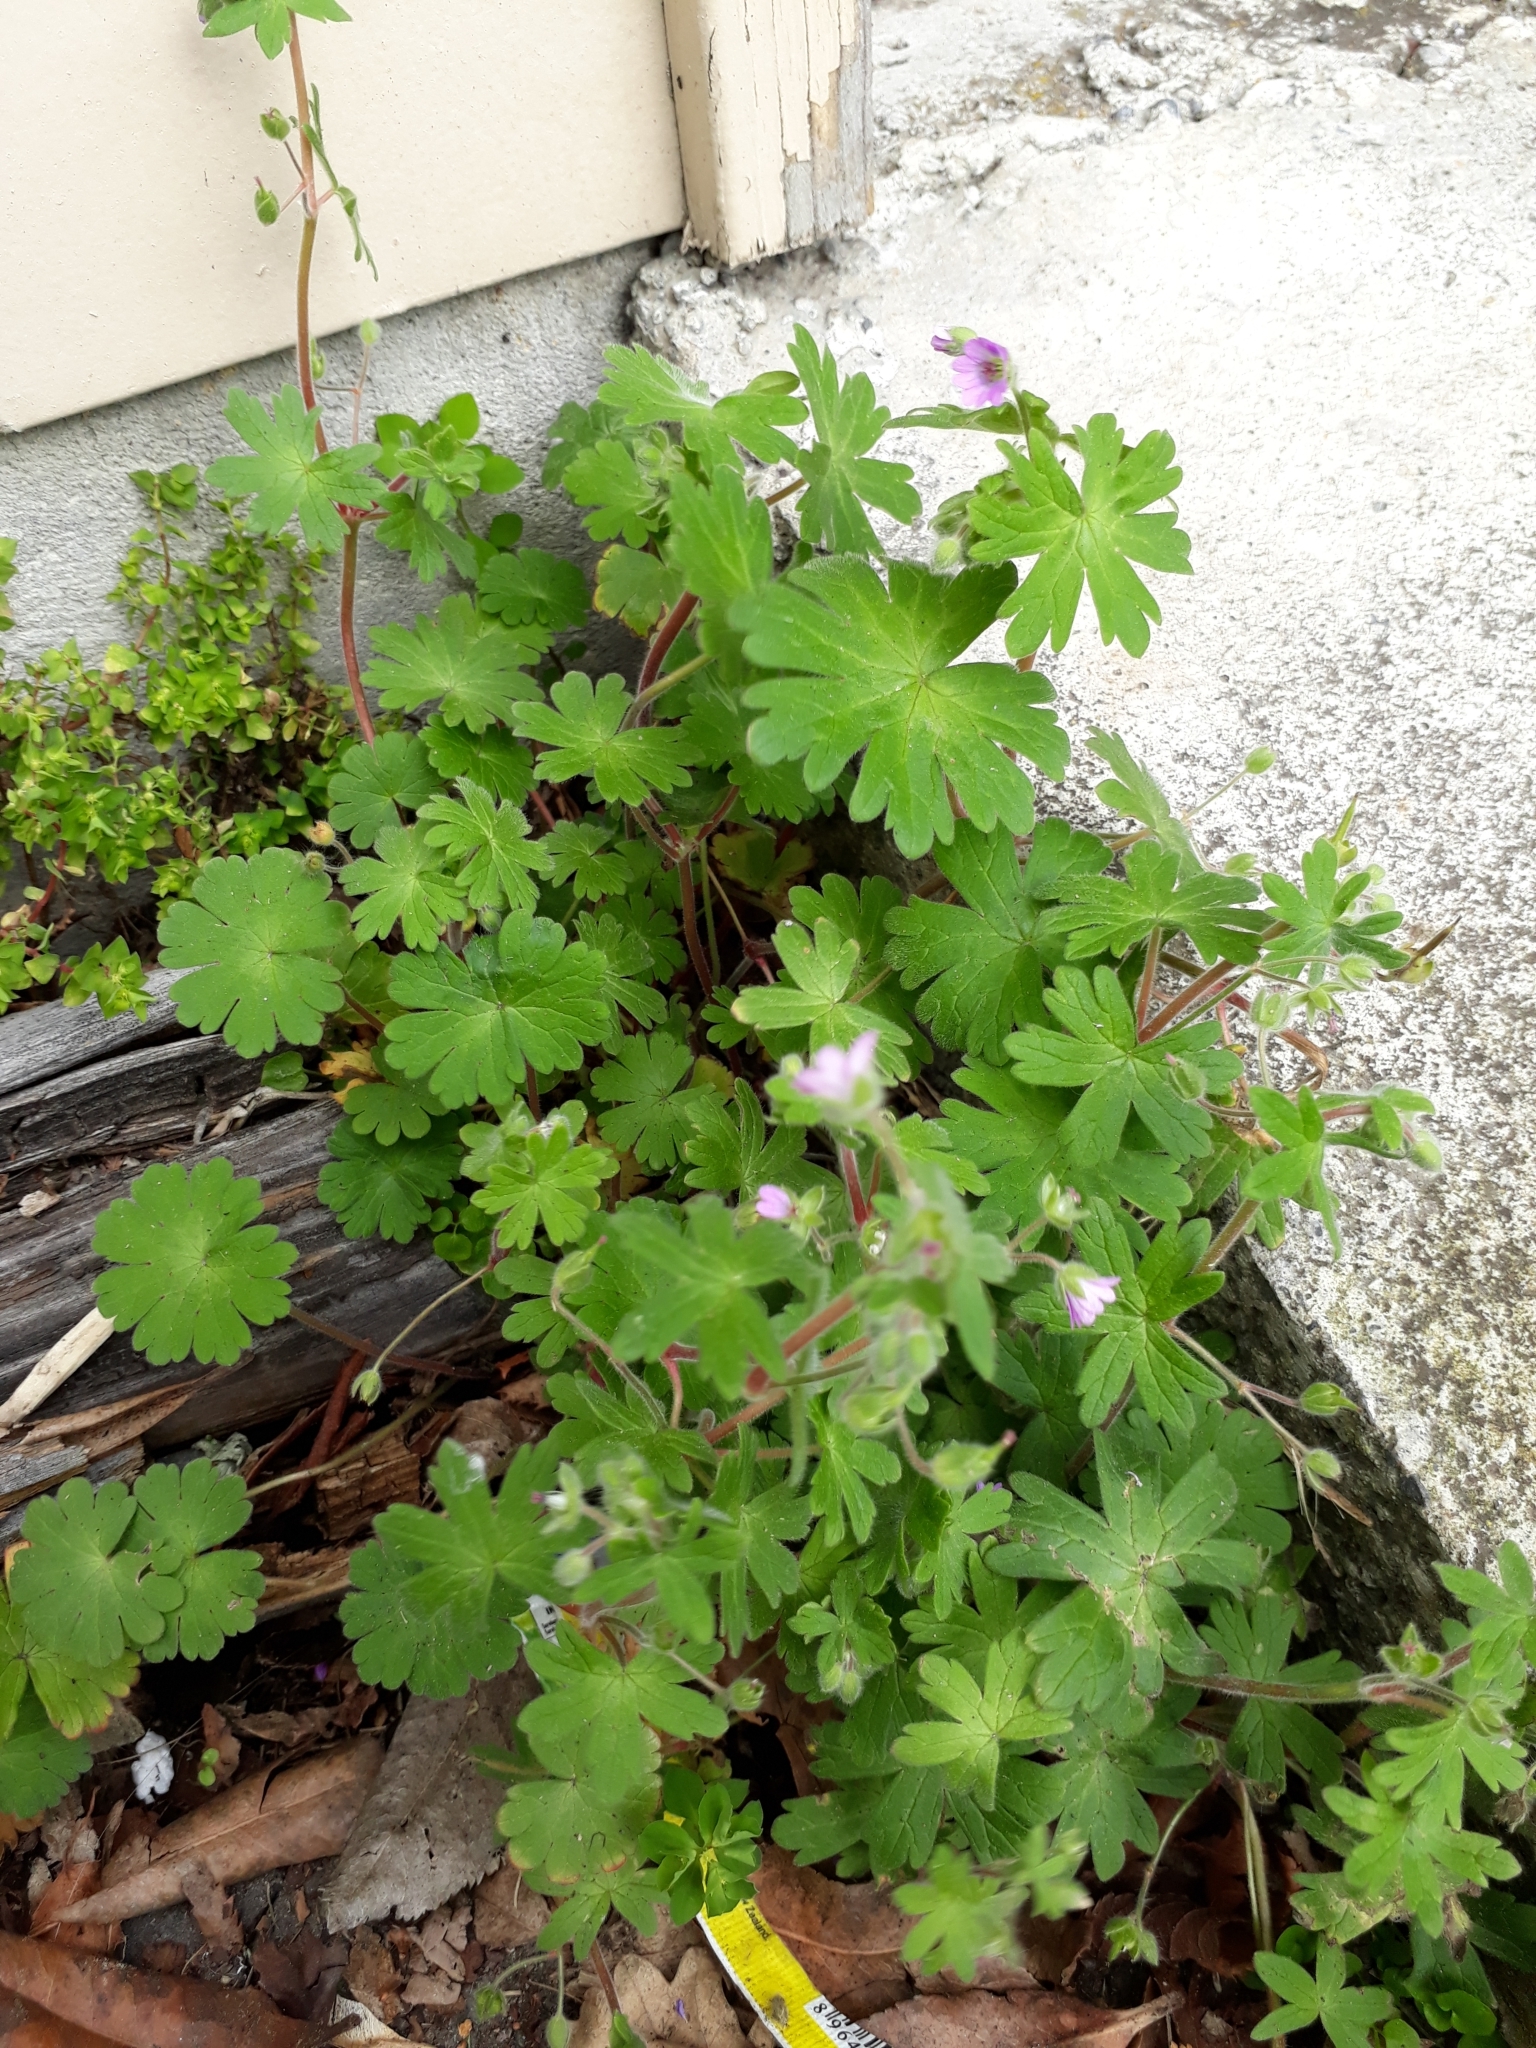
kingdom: Plantae
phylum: Tracheophyta
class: Magnoliopsida
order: Geraniales
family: Geraniaceae
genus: Geranium
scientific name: Geranium molle
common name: Dove's-foot crane's-bill
